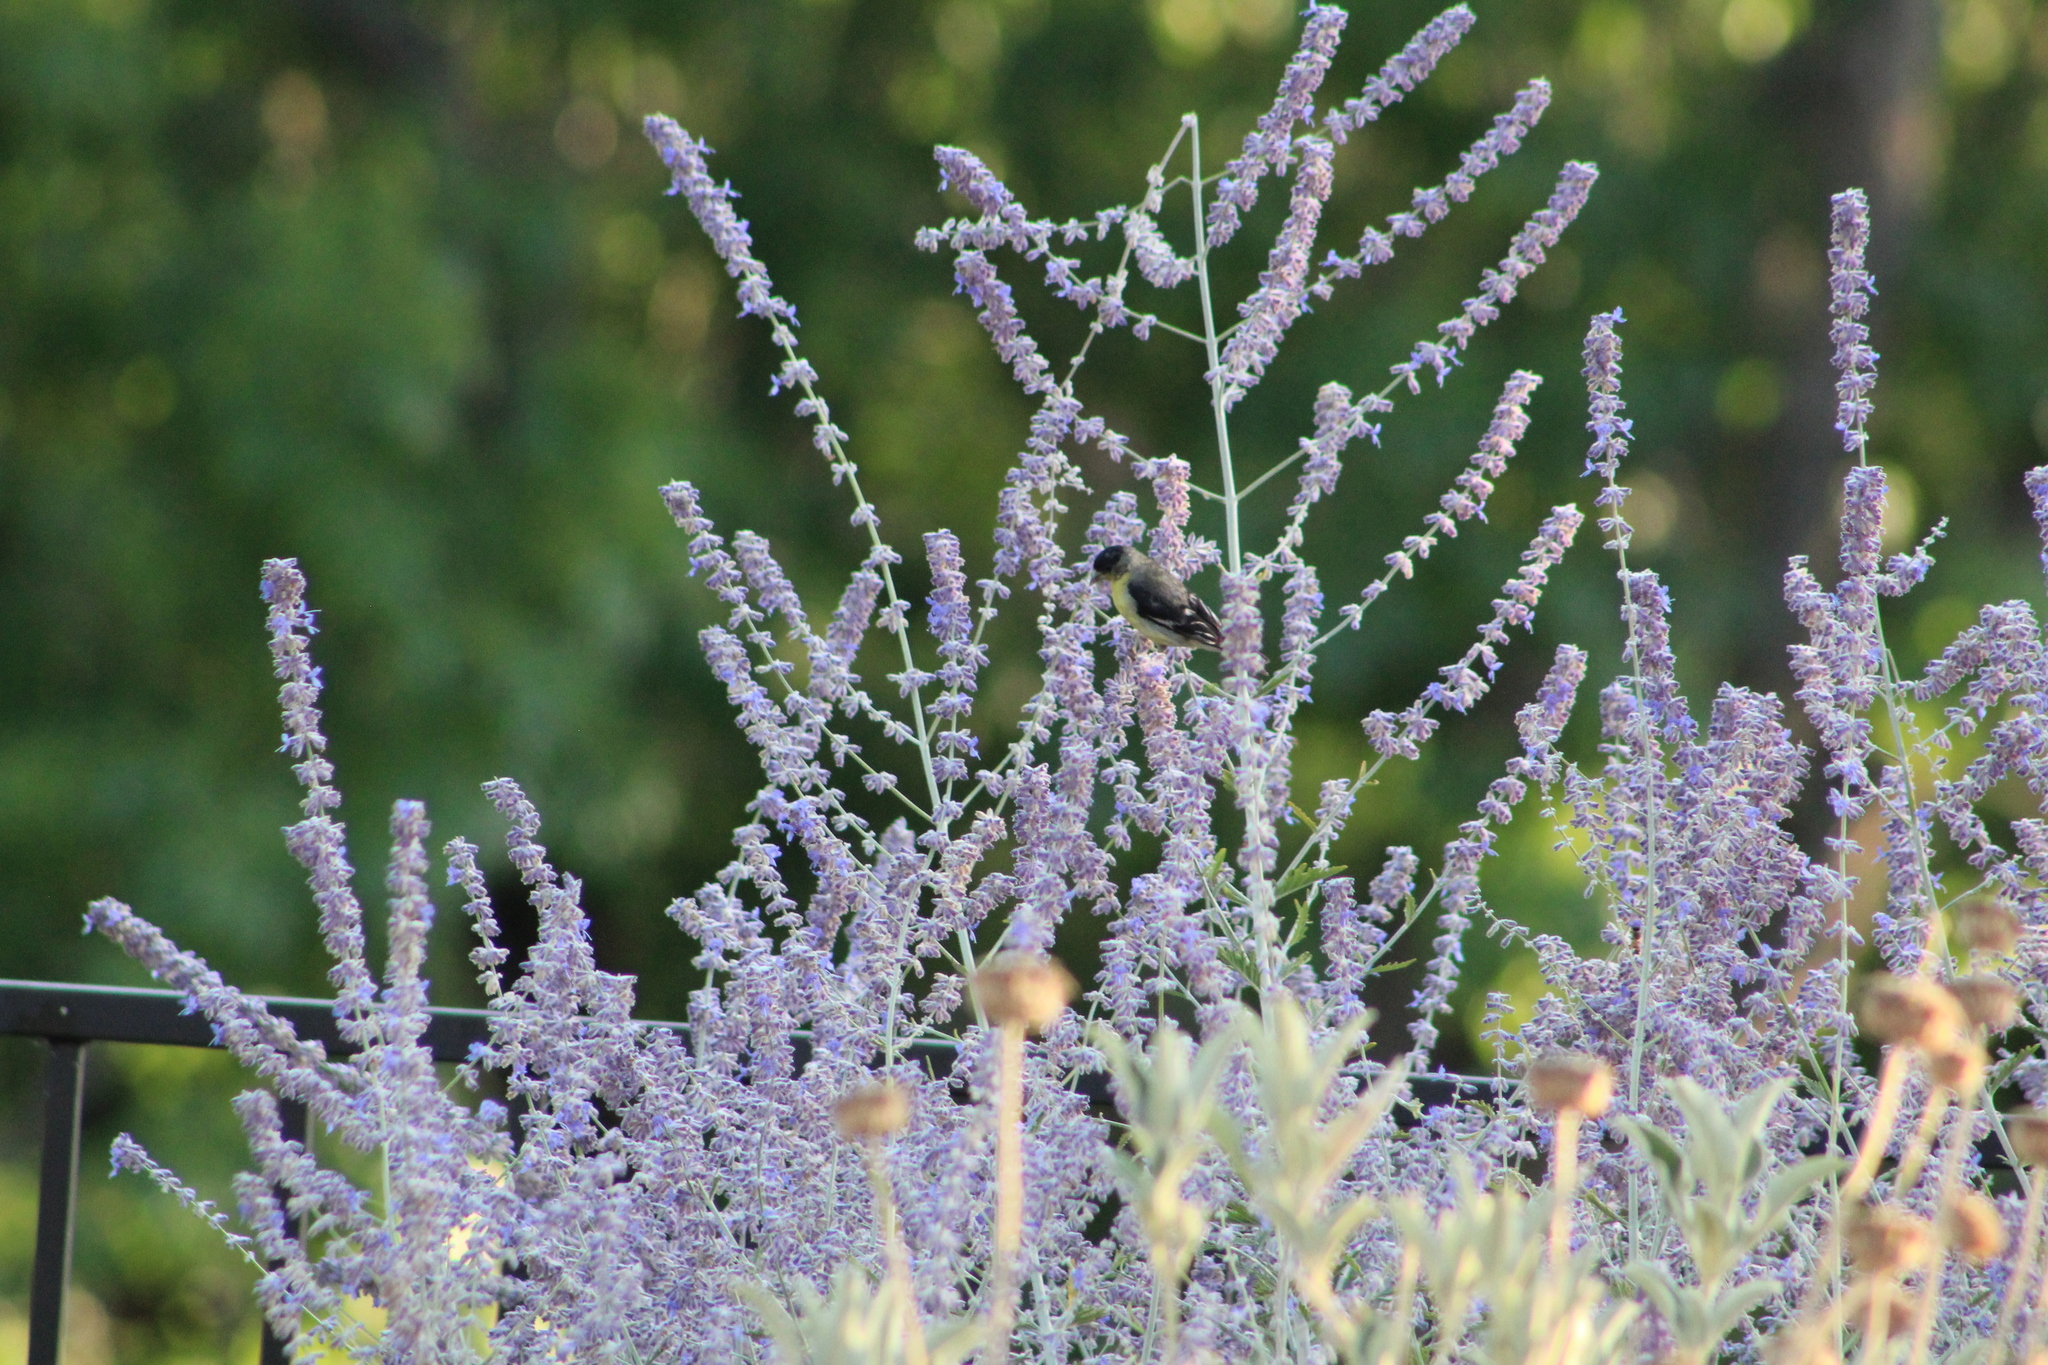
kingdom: Animalia
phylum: Chordata
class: Aves
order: Passeriformes
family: Fringillidae
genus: Spinus
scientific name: Spinus psaltria
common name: Lesser goldfinch
